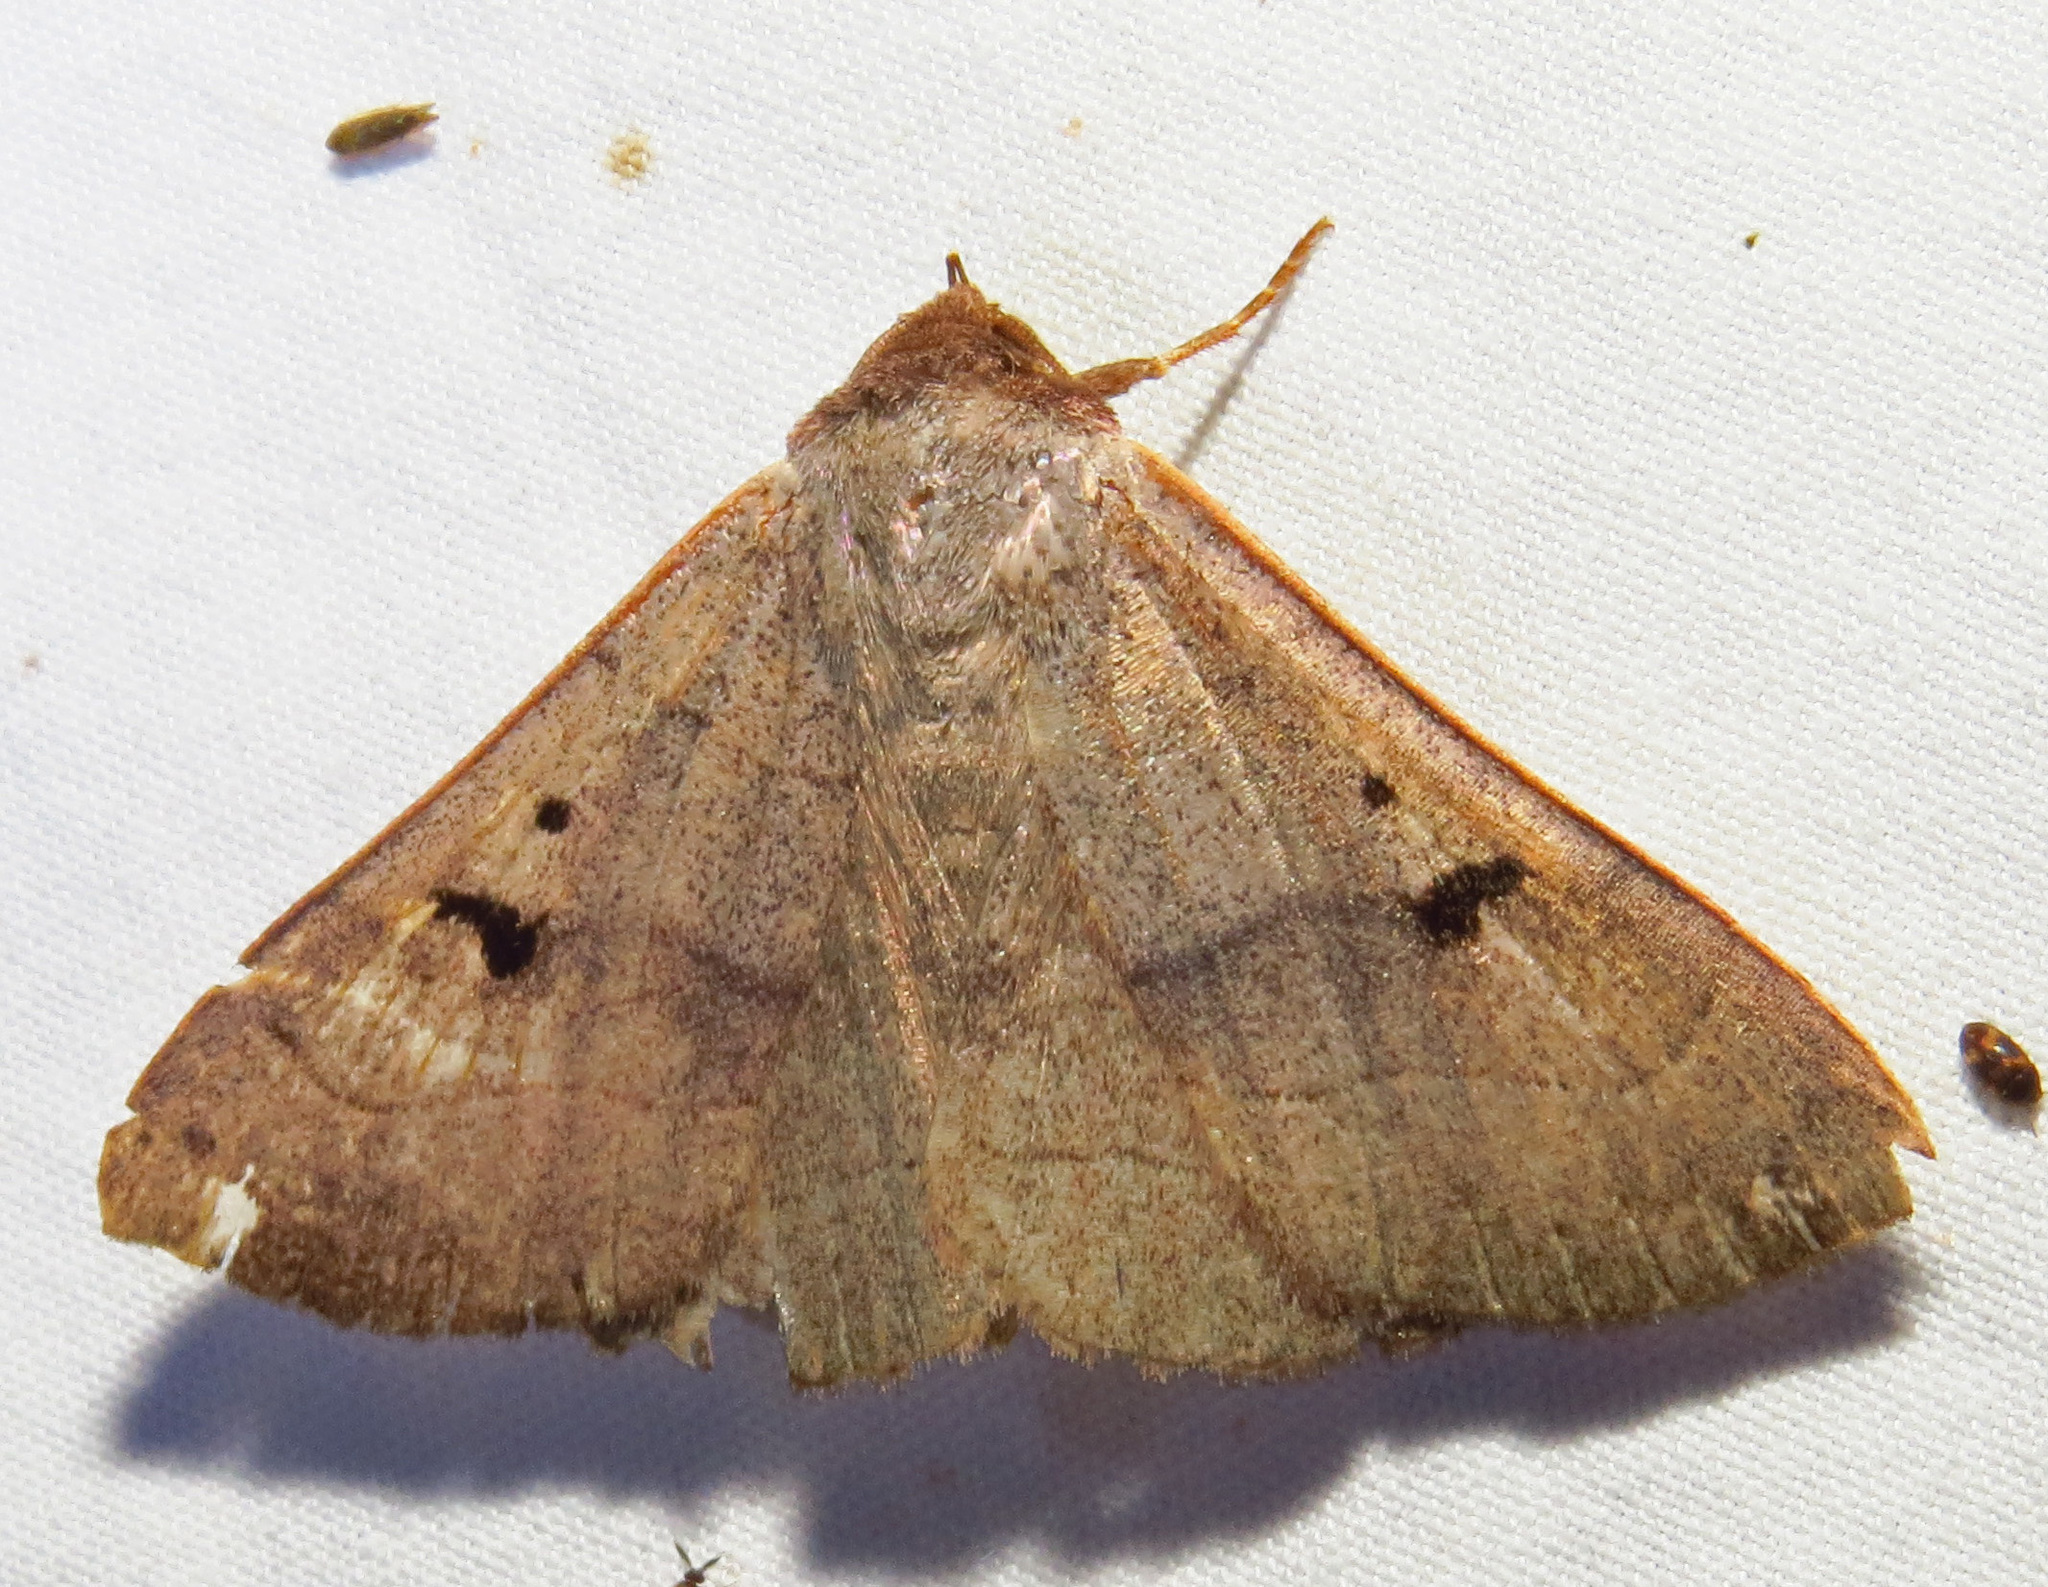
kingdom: Animalia
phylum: Arthropoda
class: Insecta
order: Lepidoptera
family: Erebidae
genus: Panopoda
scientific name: Panopoda carneicosta
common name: Brown panopoda moth
